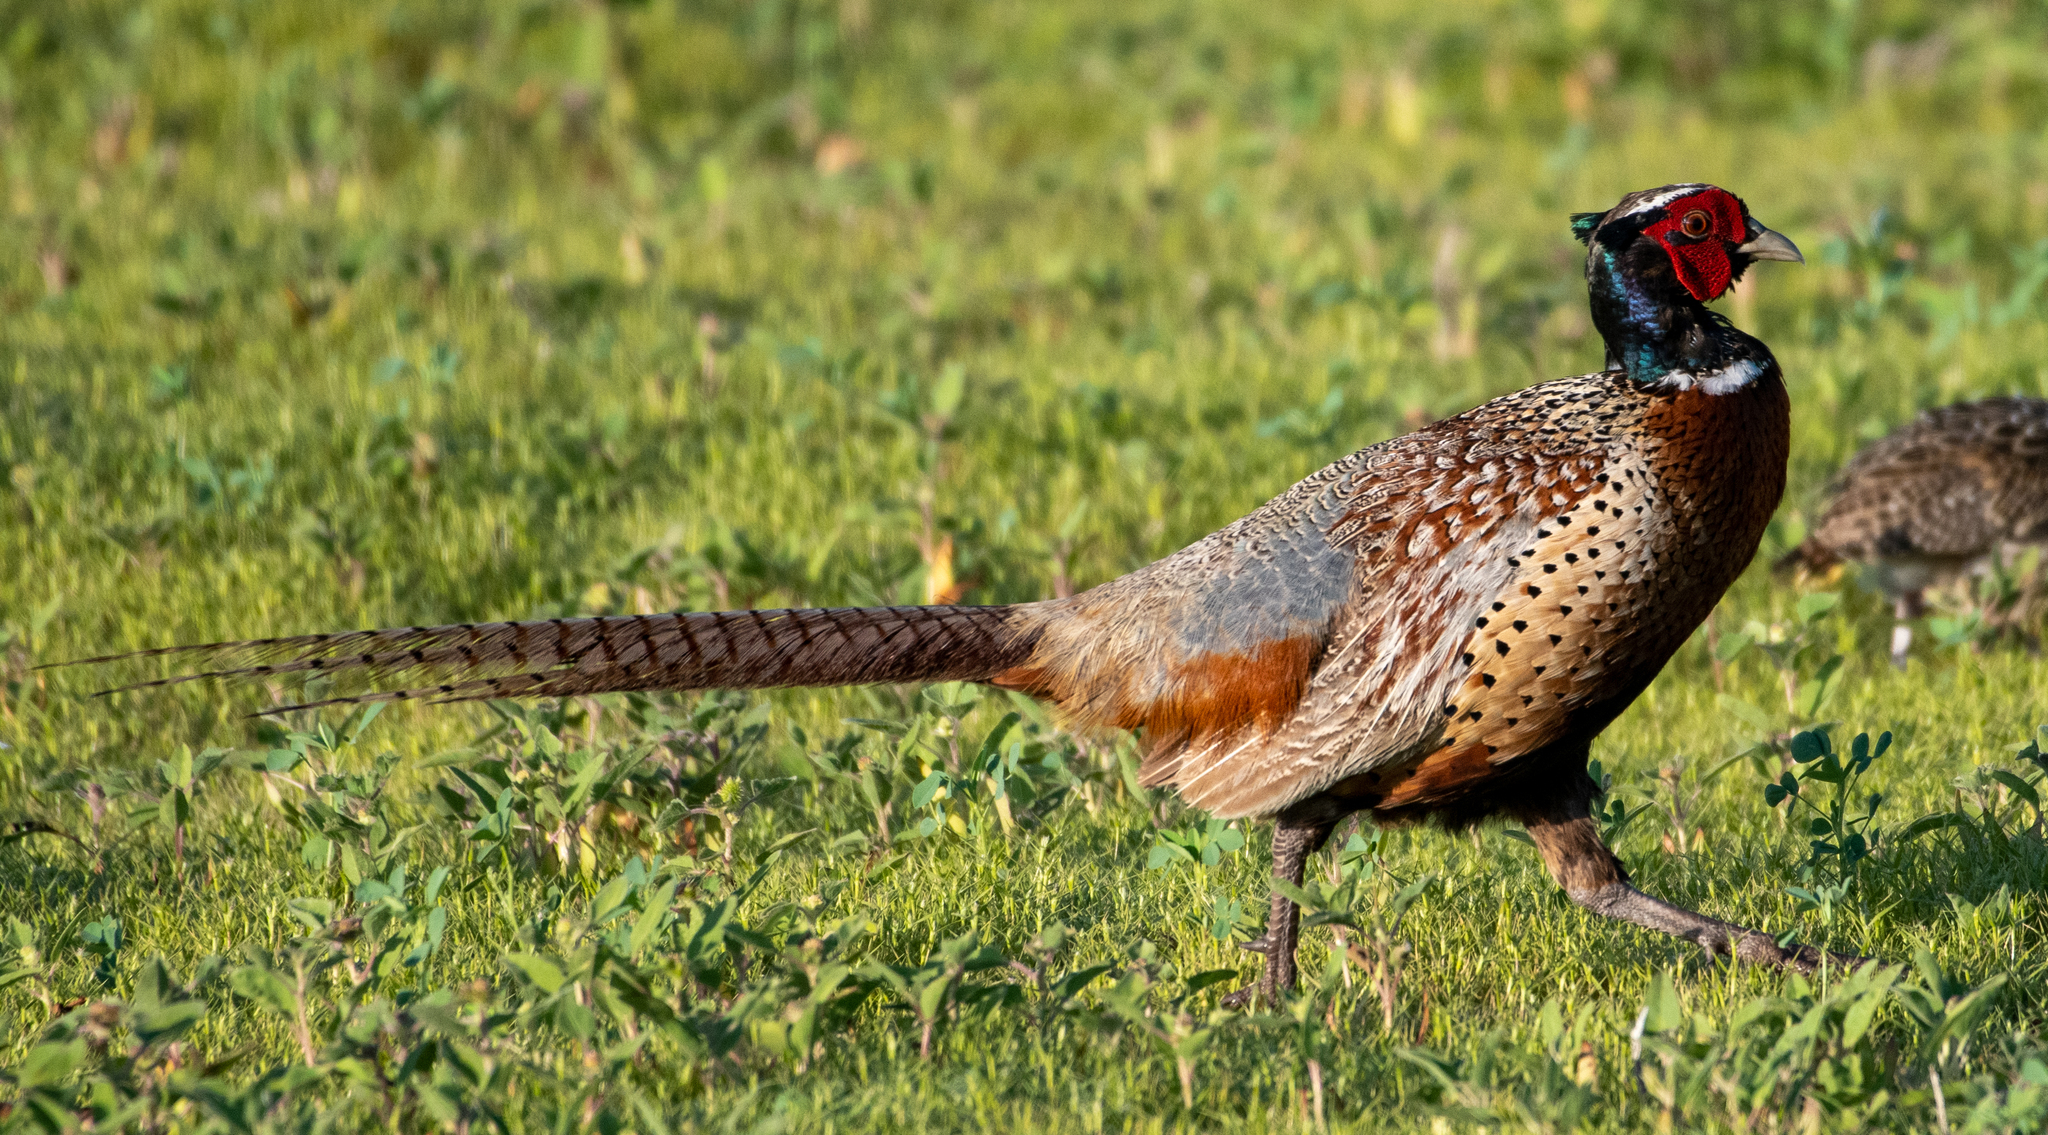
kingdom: Animalia
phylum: Chordata
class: Aves
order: Galliformes
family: Phasianidae
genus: Phasianus
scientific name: Phasianus colchicus
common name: Common pheasant
